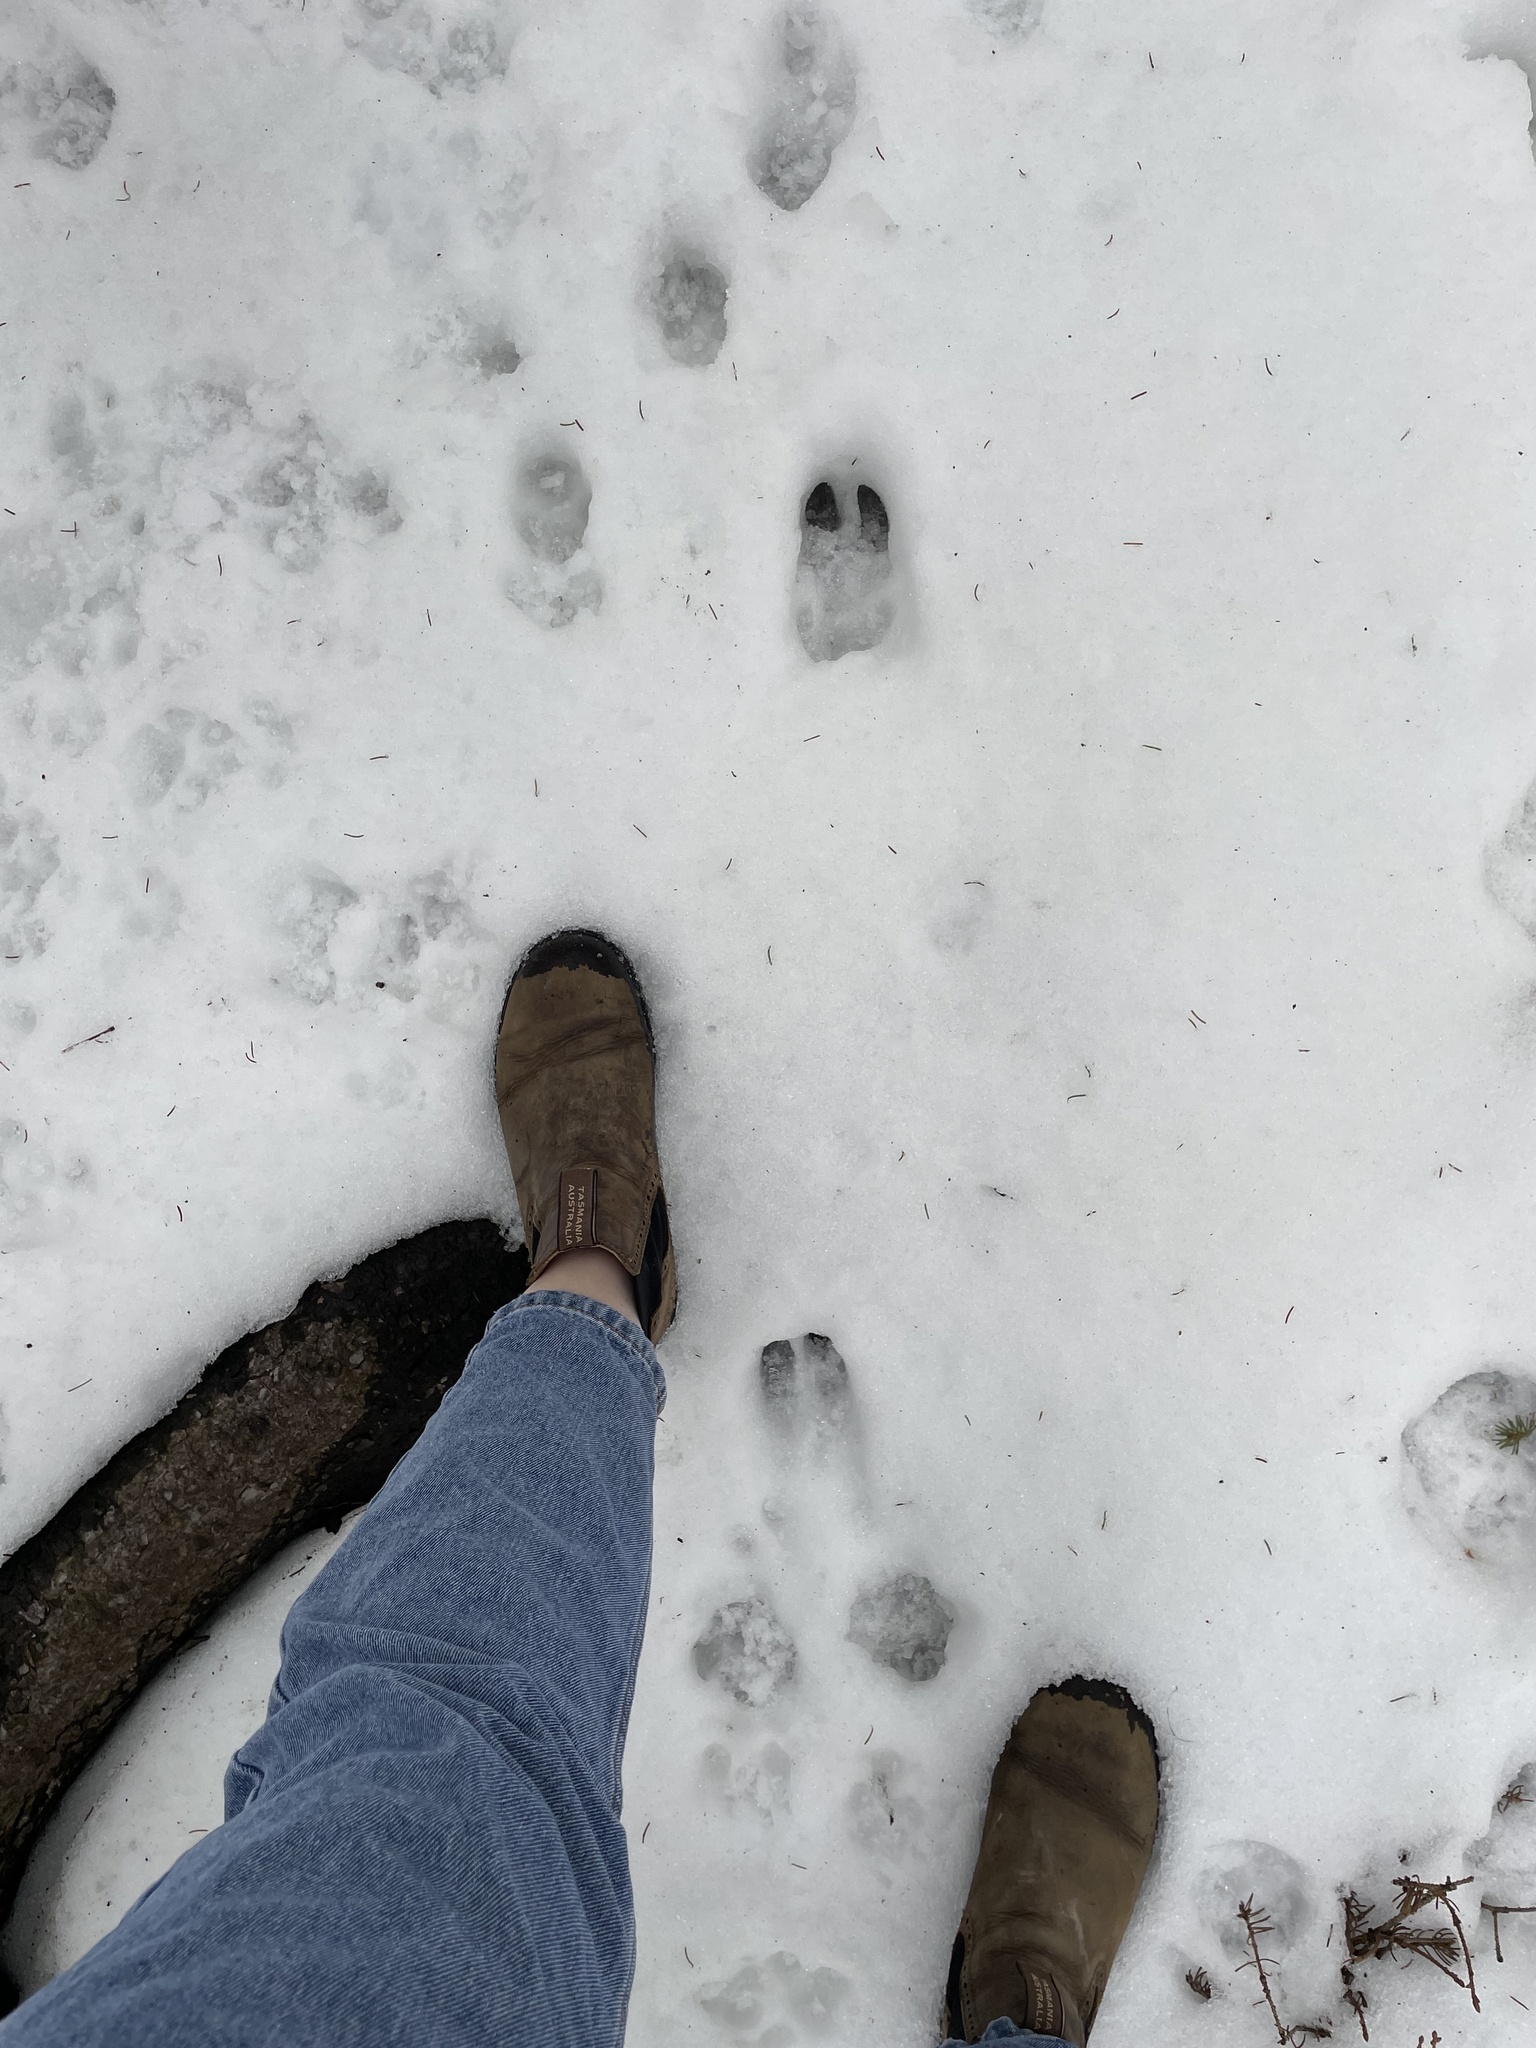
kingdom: Animalia
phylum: Chordata
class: Mammalia
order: Artiodactyla
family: Cervidae
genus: Odocoileus
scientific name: Odocoileus virginianus
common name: White-tailed deer
